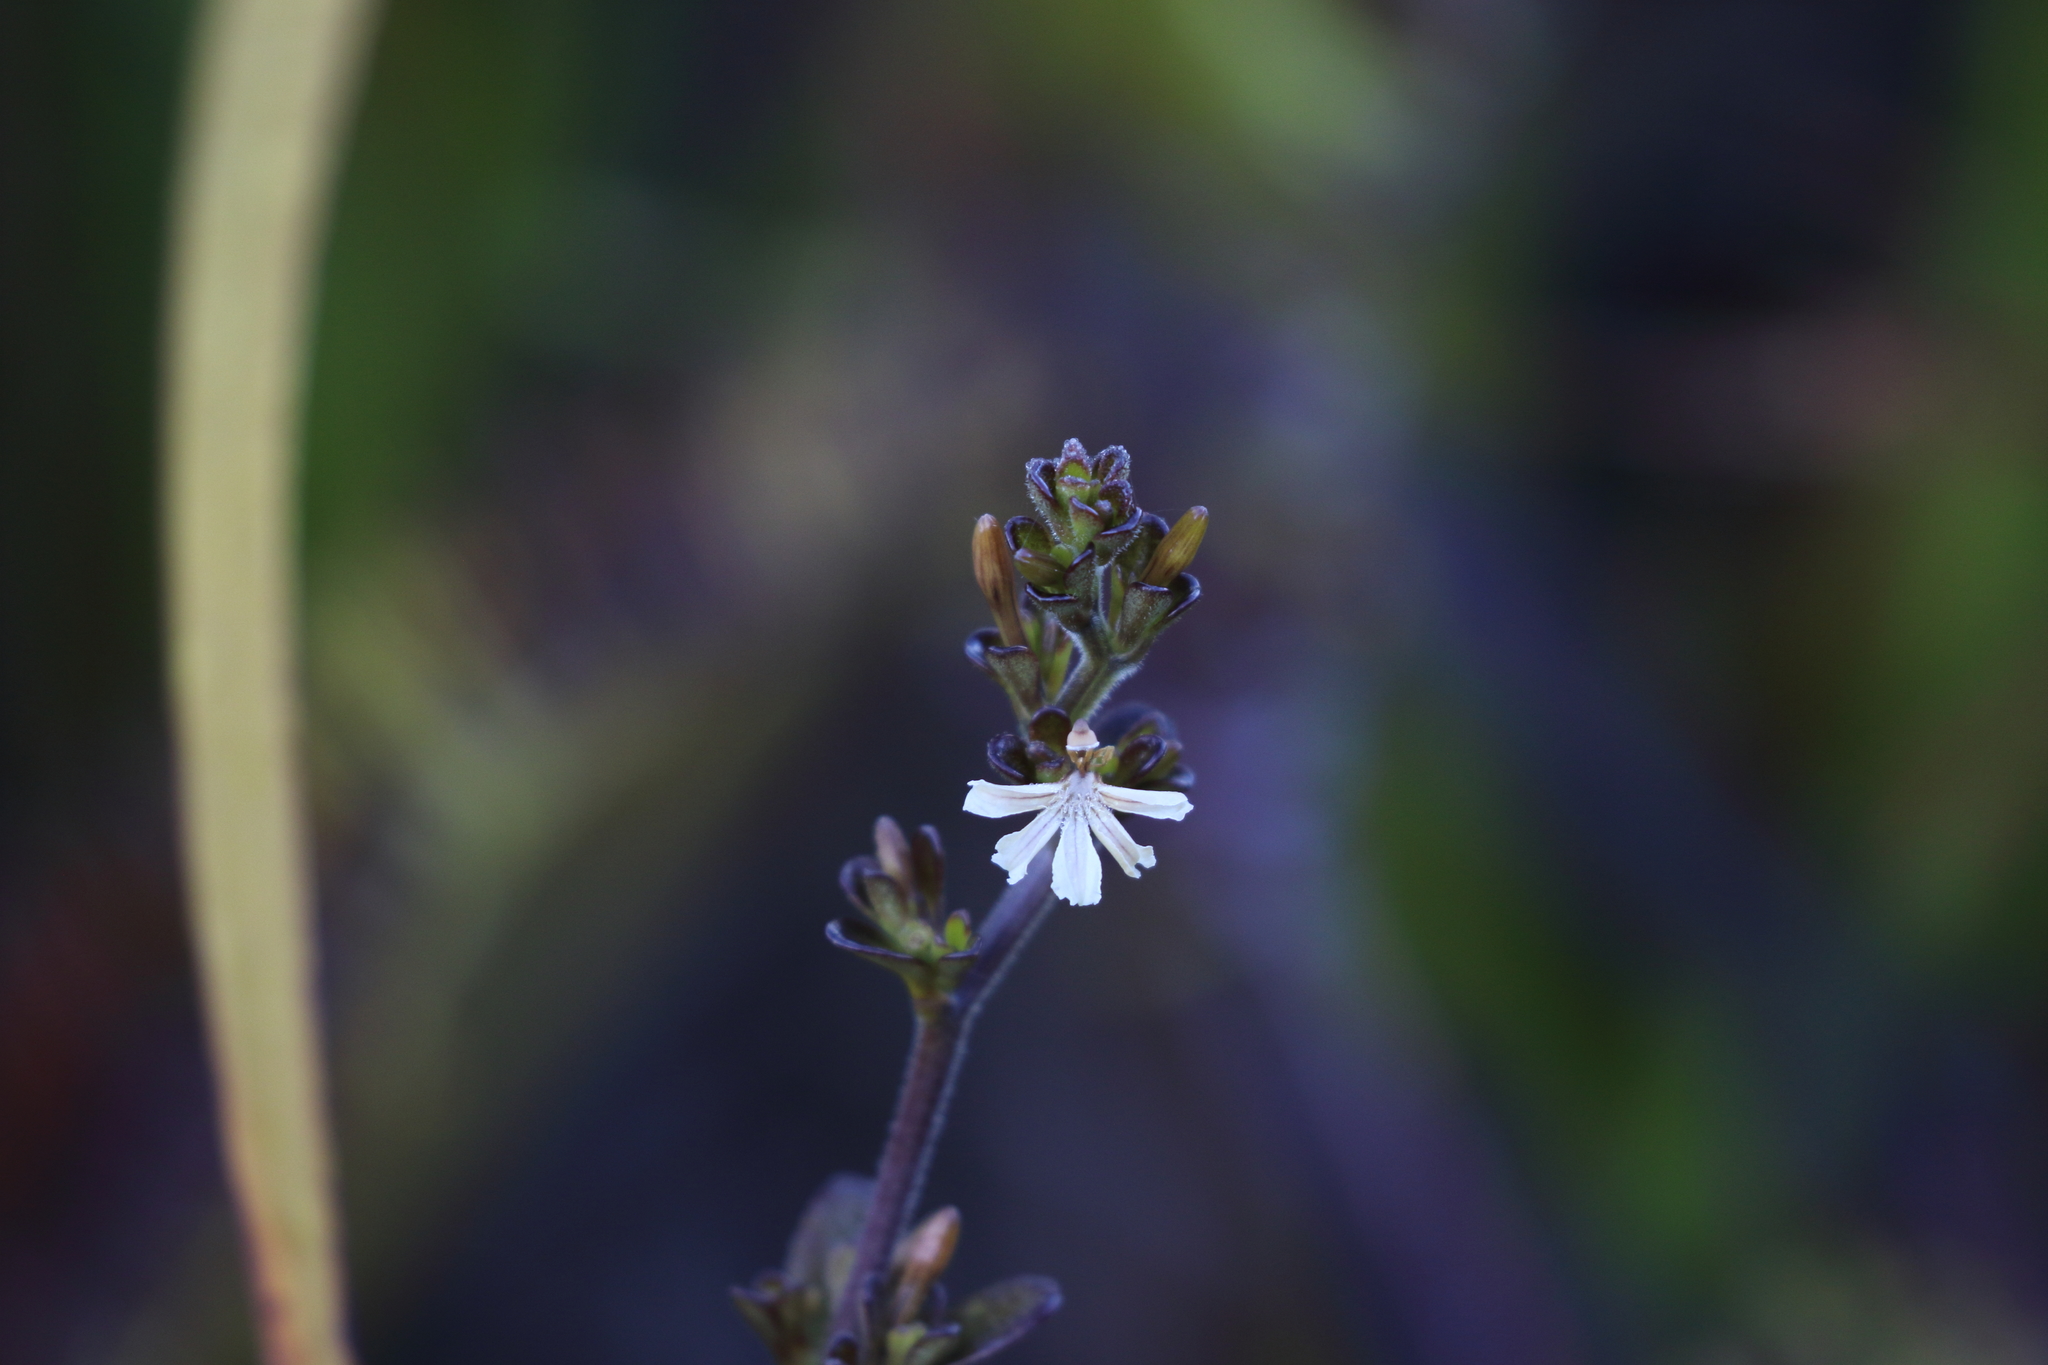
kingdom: Plantae
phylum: Tracheophyta
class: Magnoliopsida
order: Asterales
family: Goodeniaceae
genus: Scaevola
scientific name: Scaevola beckii
